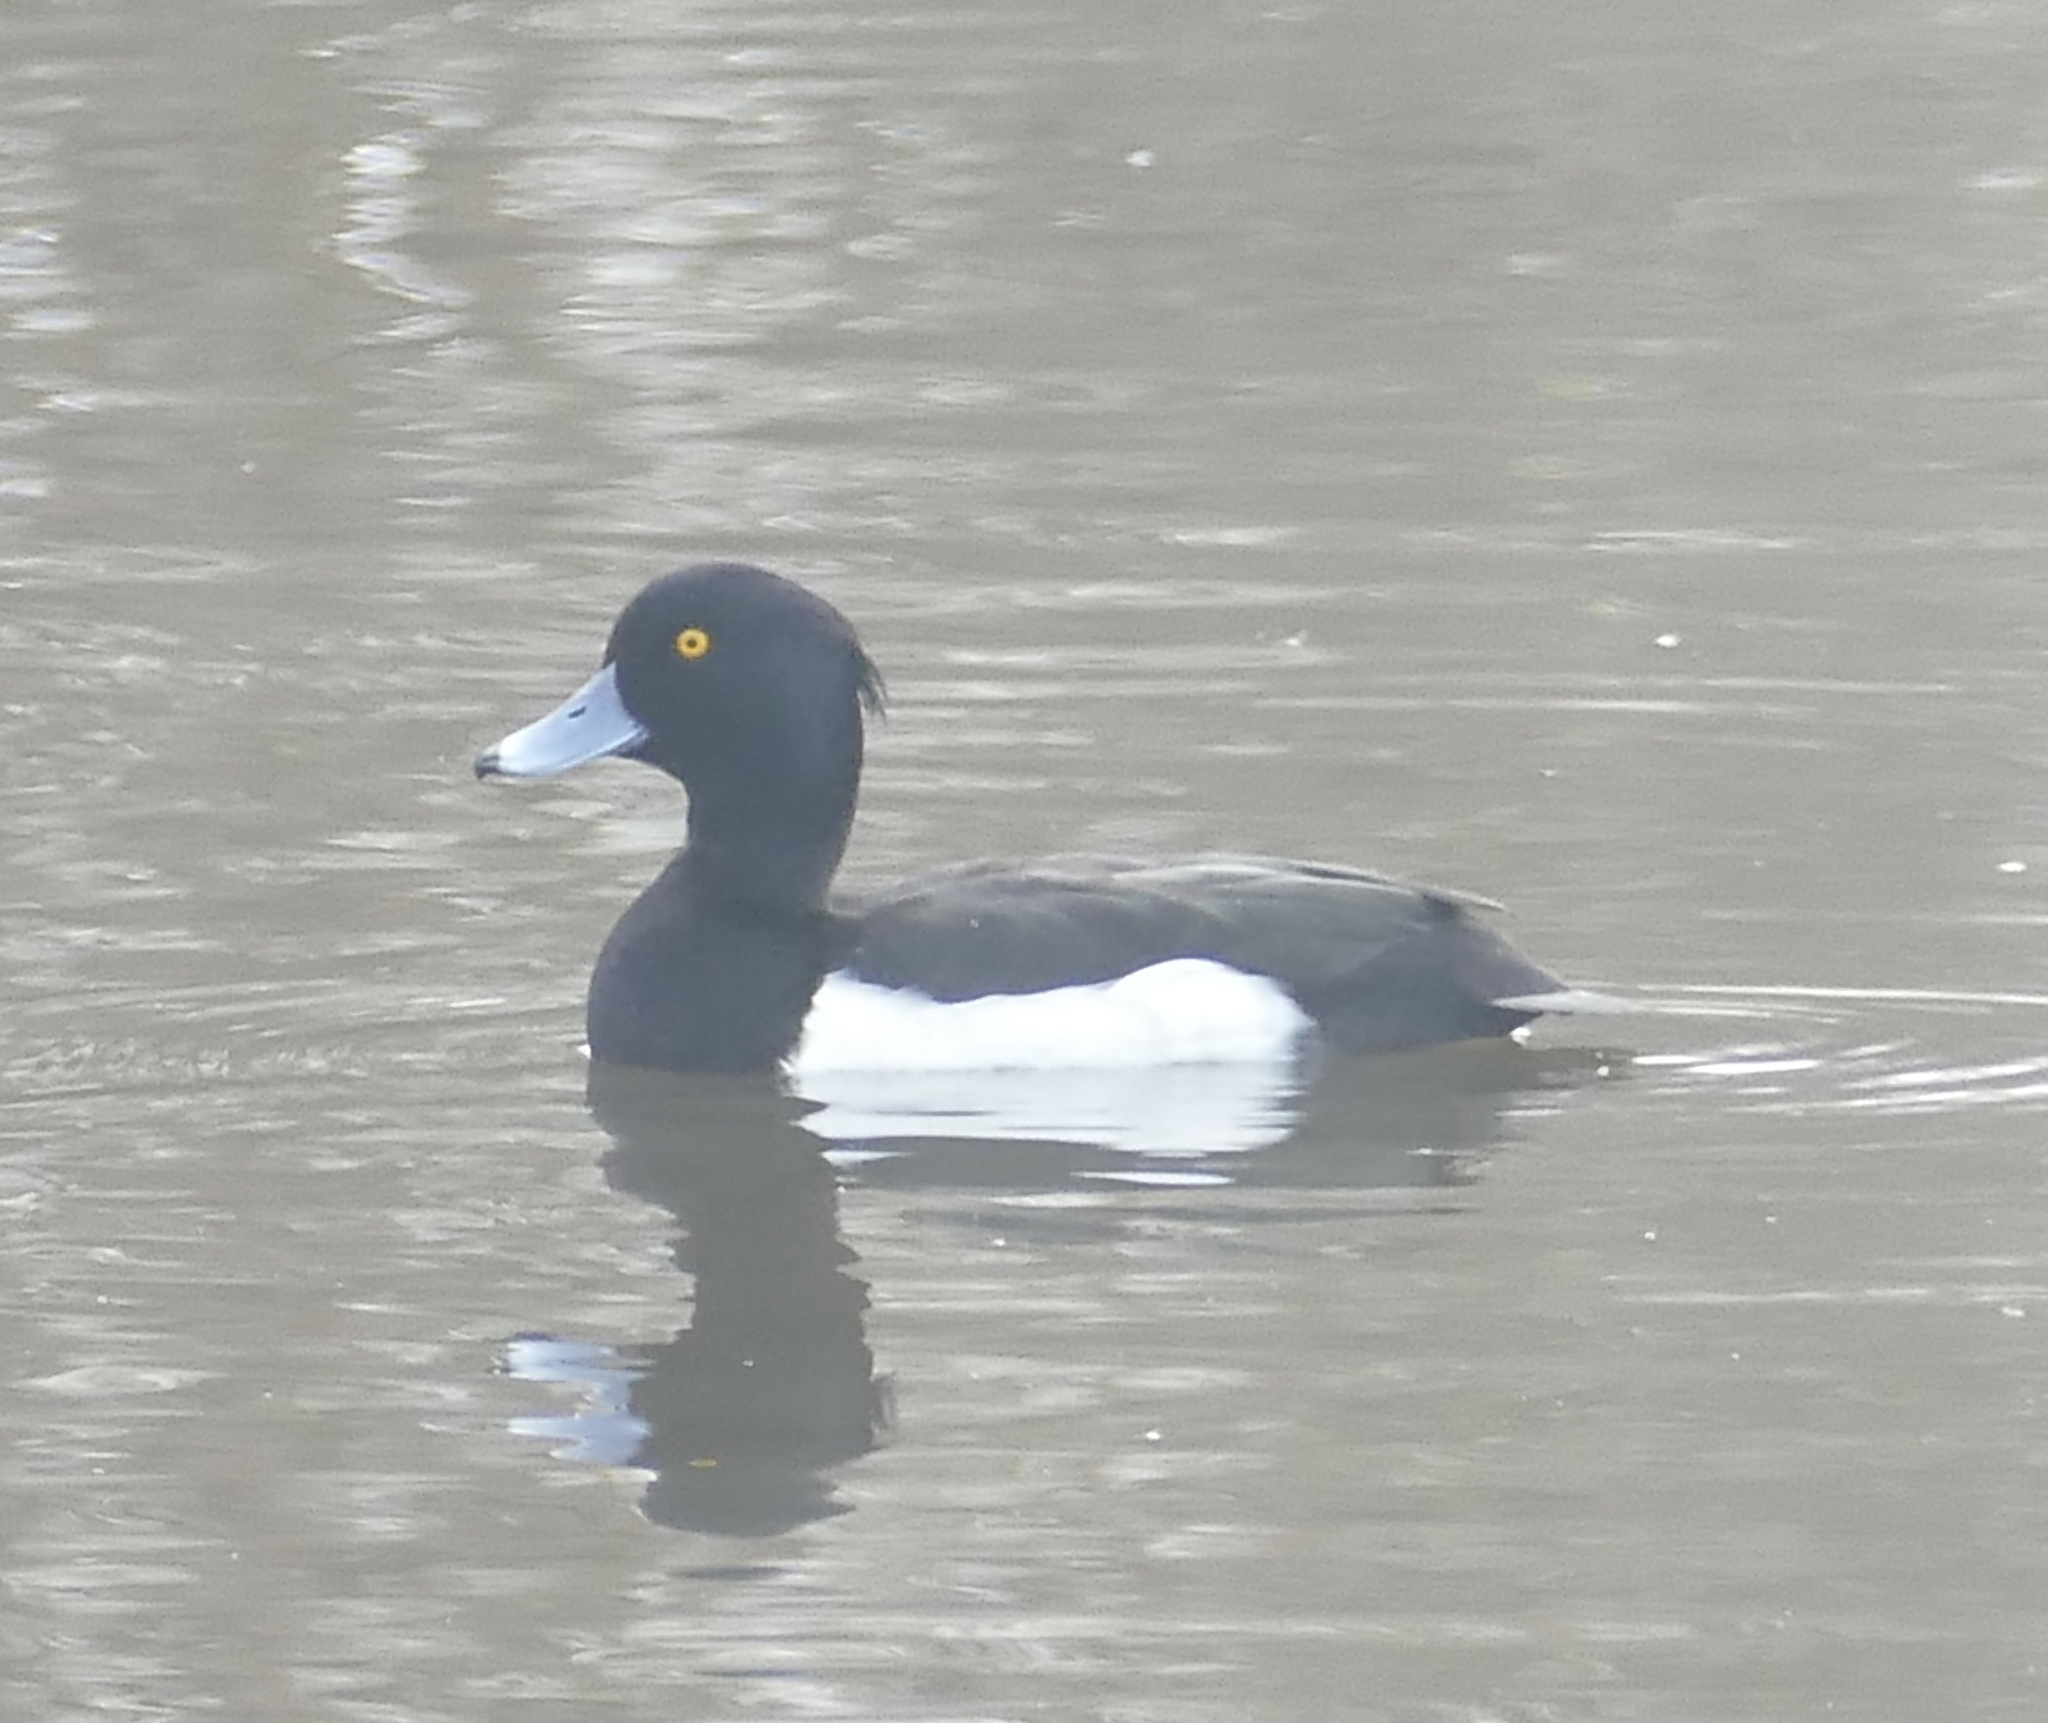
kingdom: Animalia
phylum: Chordata
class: Aves
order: Anseriformes
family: Anatidae
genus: Aythya
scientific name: Aythya fuligula
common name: Tufted duck
